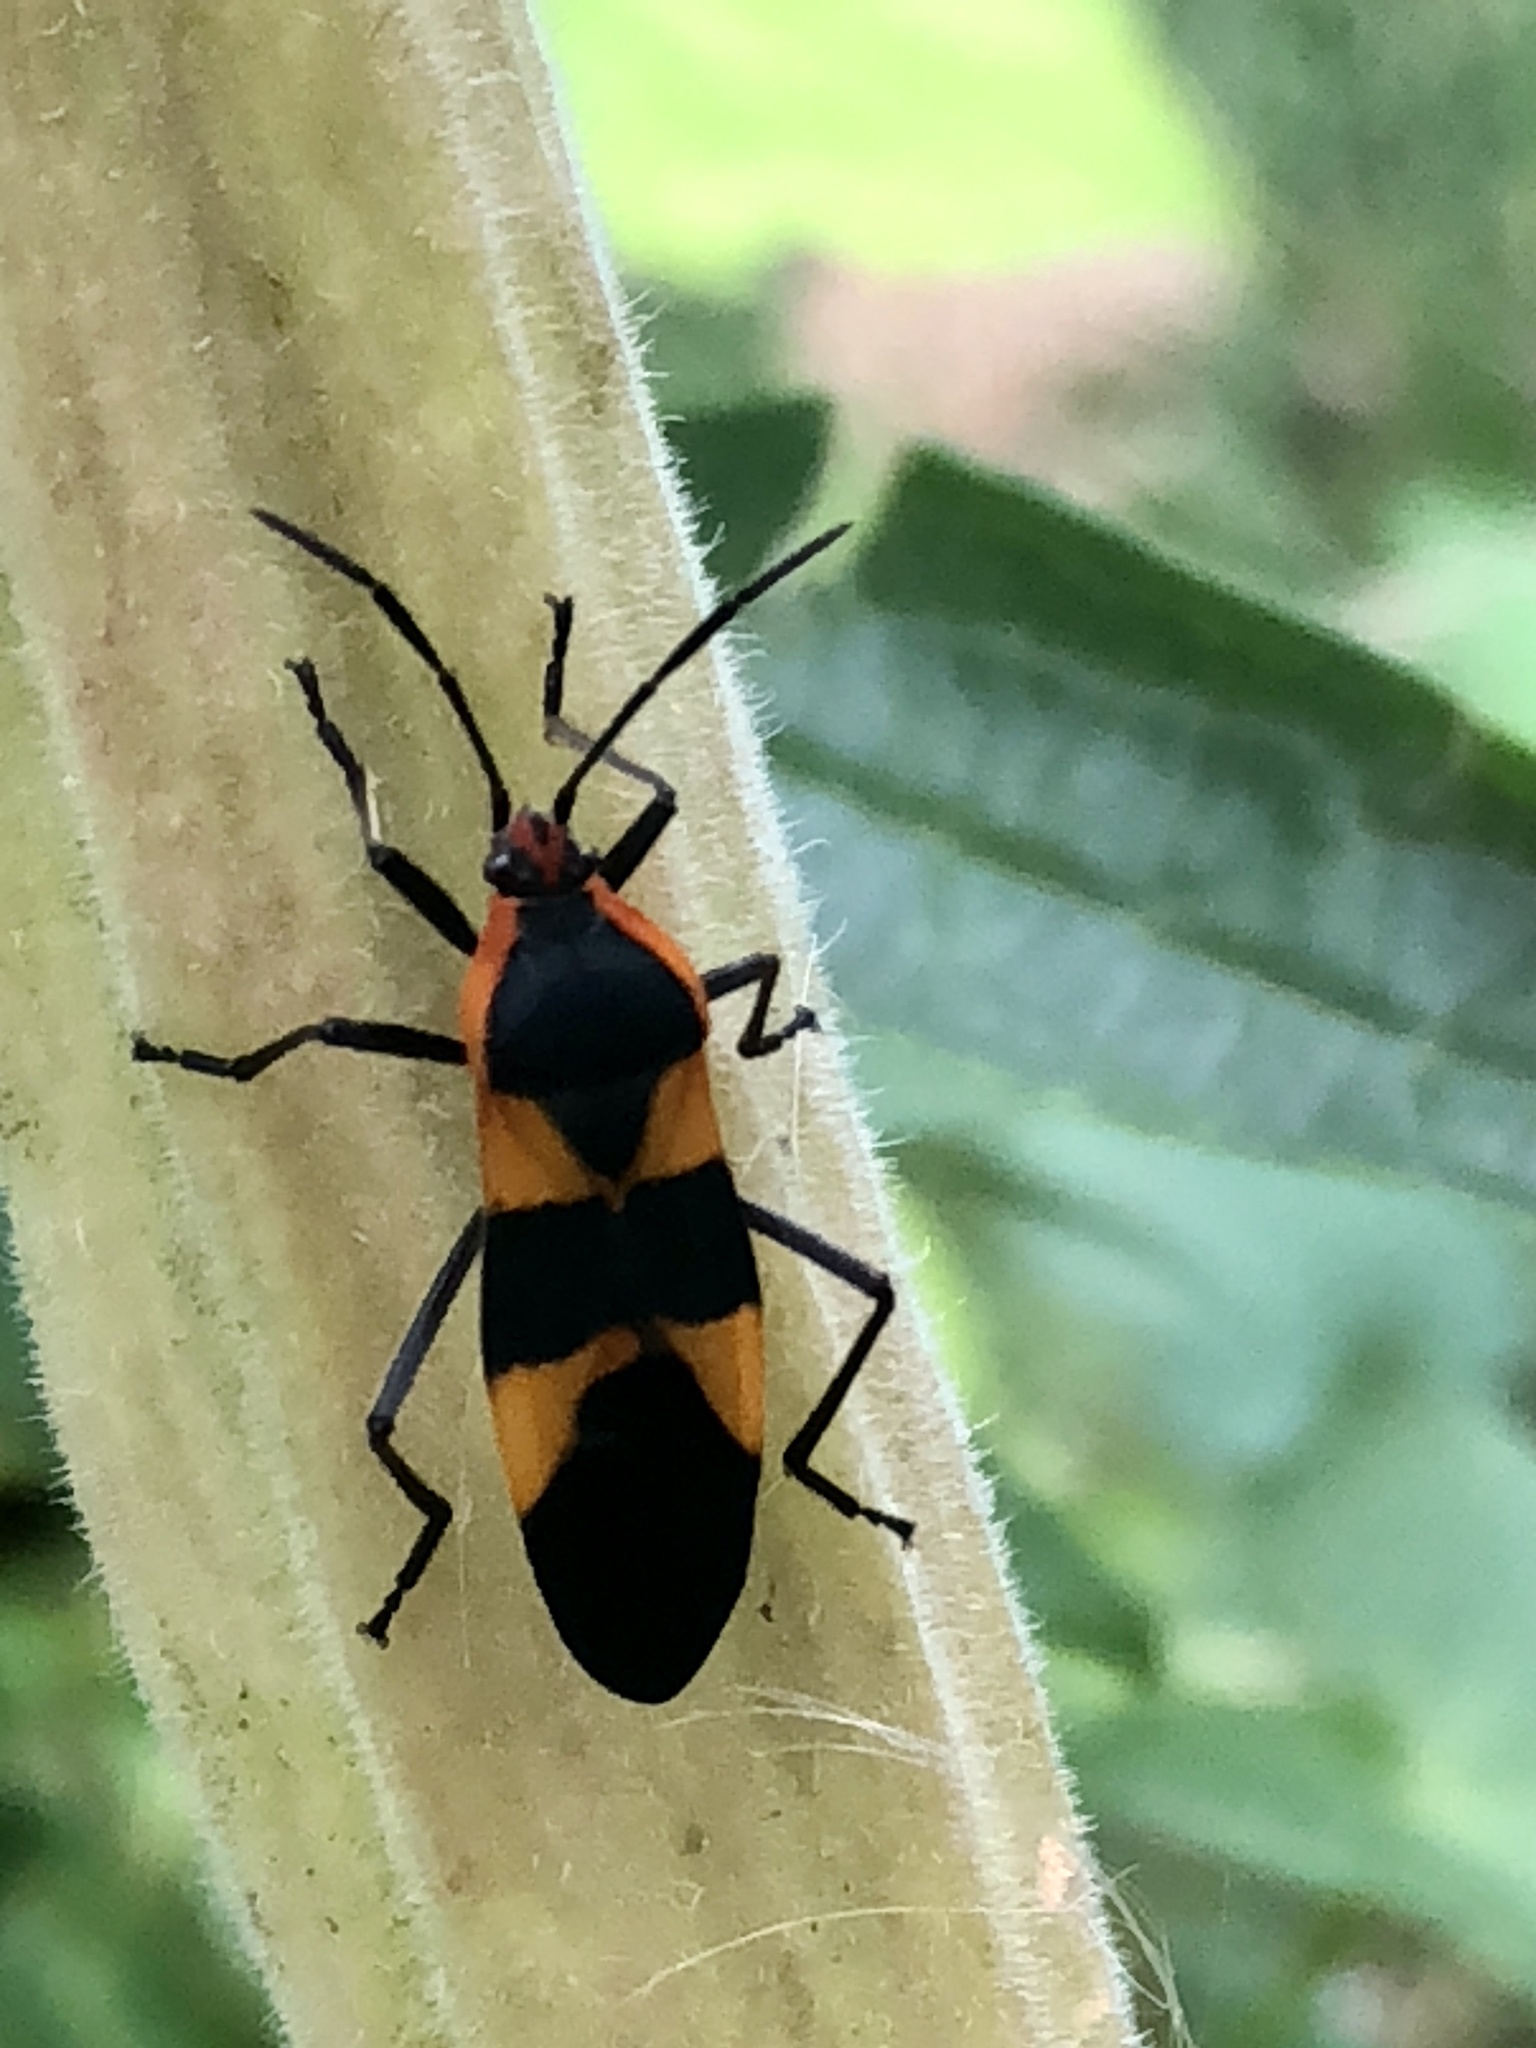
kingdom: Animalia
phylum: Arthropoda
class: Insecta
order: Hemiptera
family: Lygaeidae
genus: Oncopeltus
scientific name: Oncopeltus fasciatus
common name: Large milkweed bug
